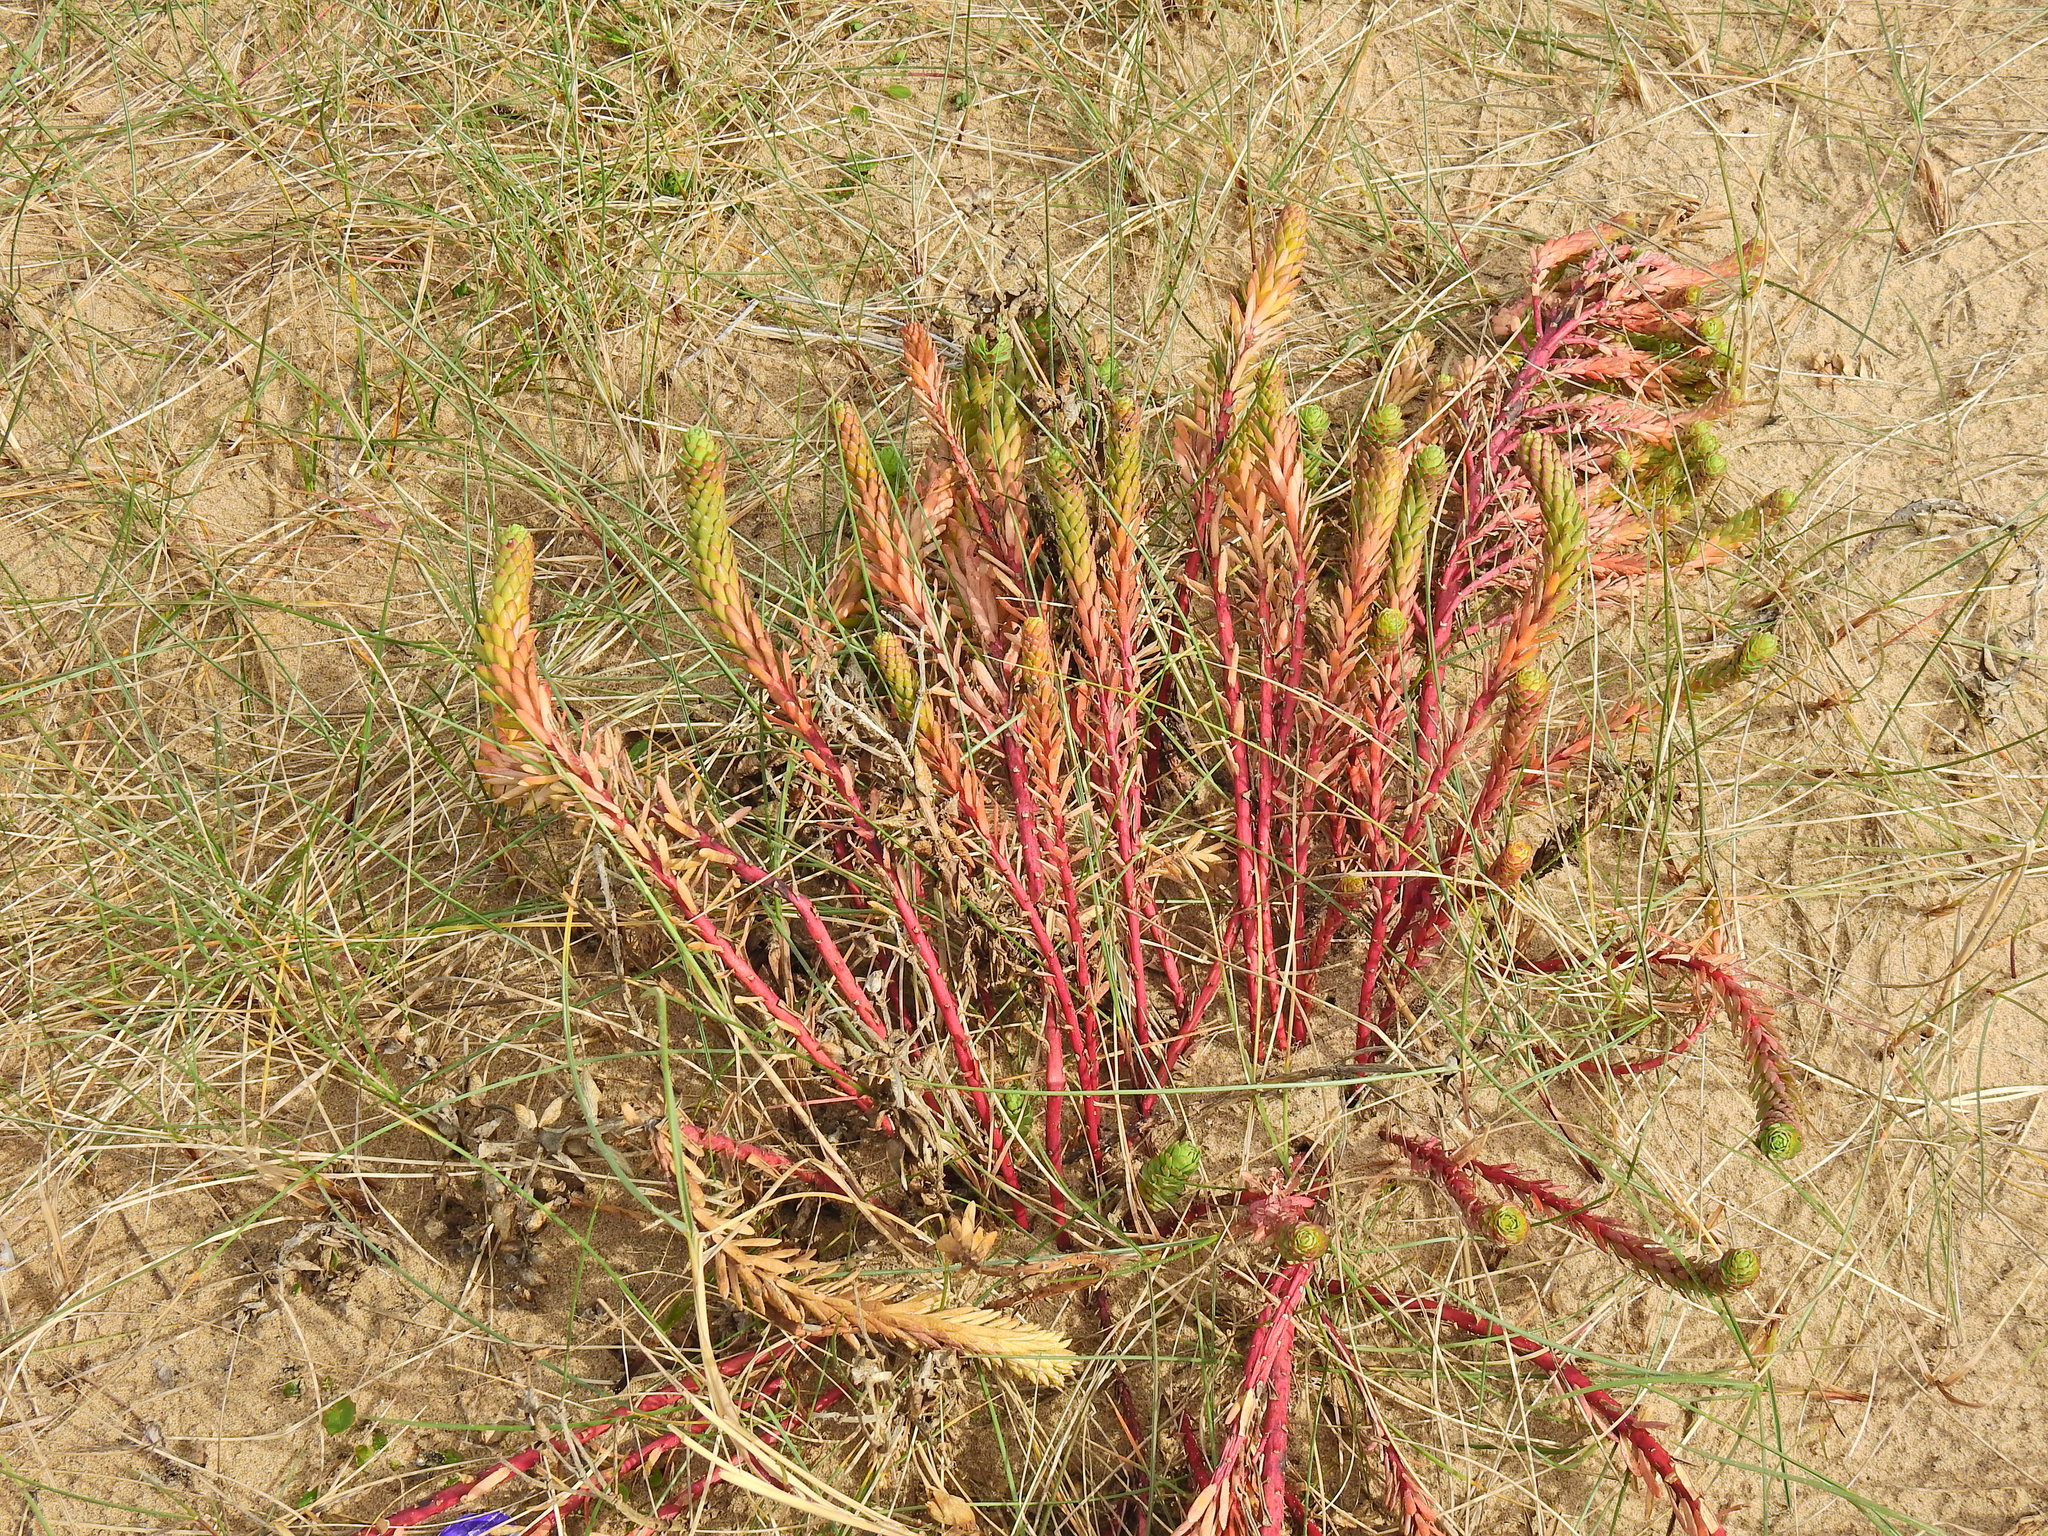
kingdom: Plantae
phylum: Tracheophyta
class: Magnoliopsida
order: Malpighiales
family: Euphorbiaceae
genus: Euphorbia
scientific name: Euphorbia paralias
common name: Sea spurge
